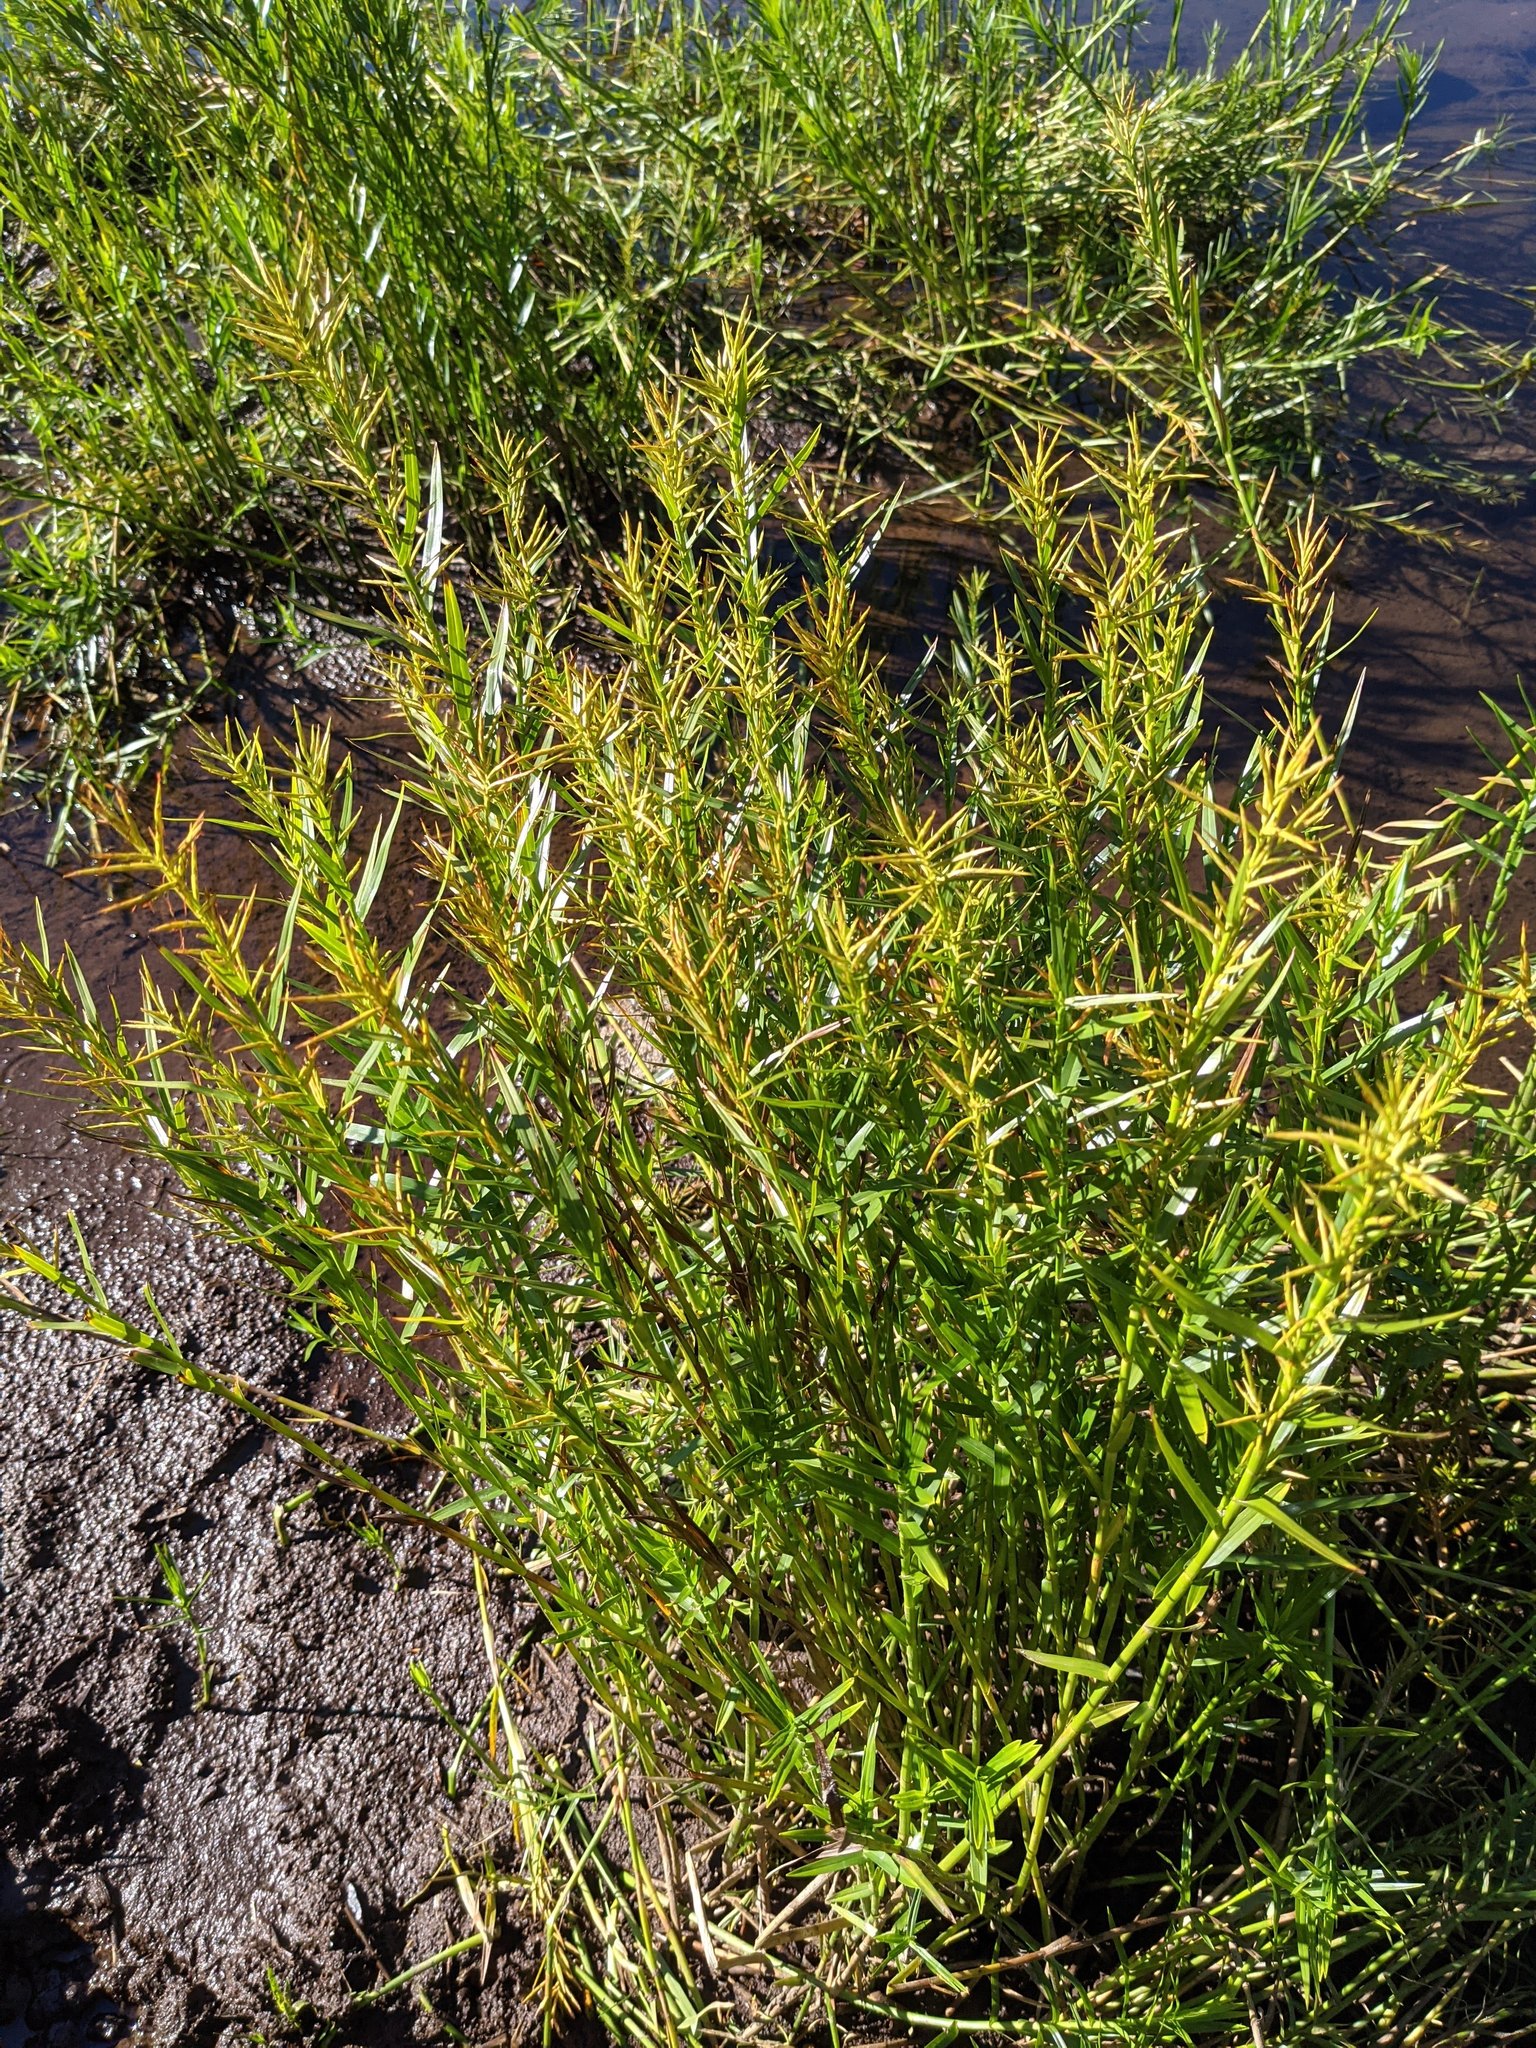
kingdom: Plantae
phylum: Tracheophyta
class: Liliopsida
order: Poales
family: Cyperaceae
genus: Dulichium
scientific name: Dulichium arundinaceum
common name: Three-way sedge
